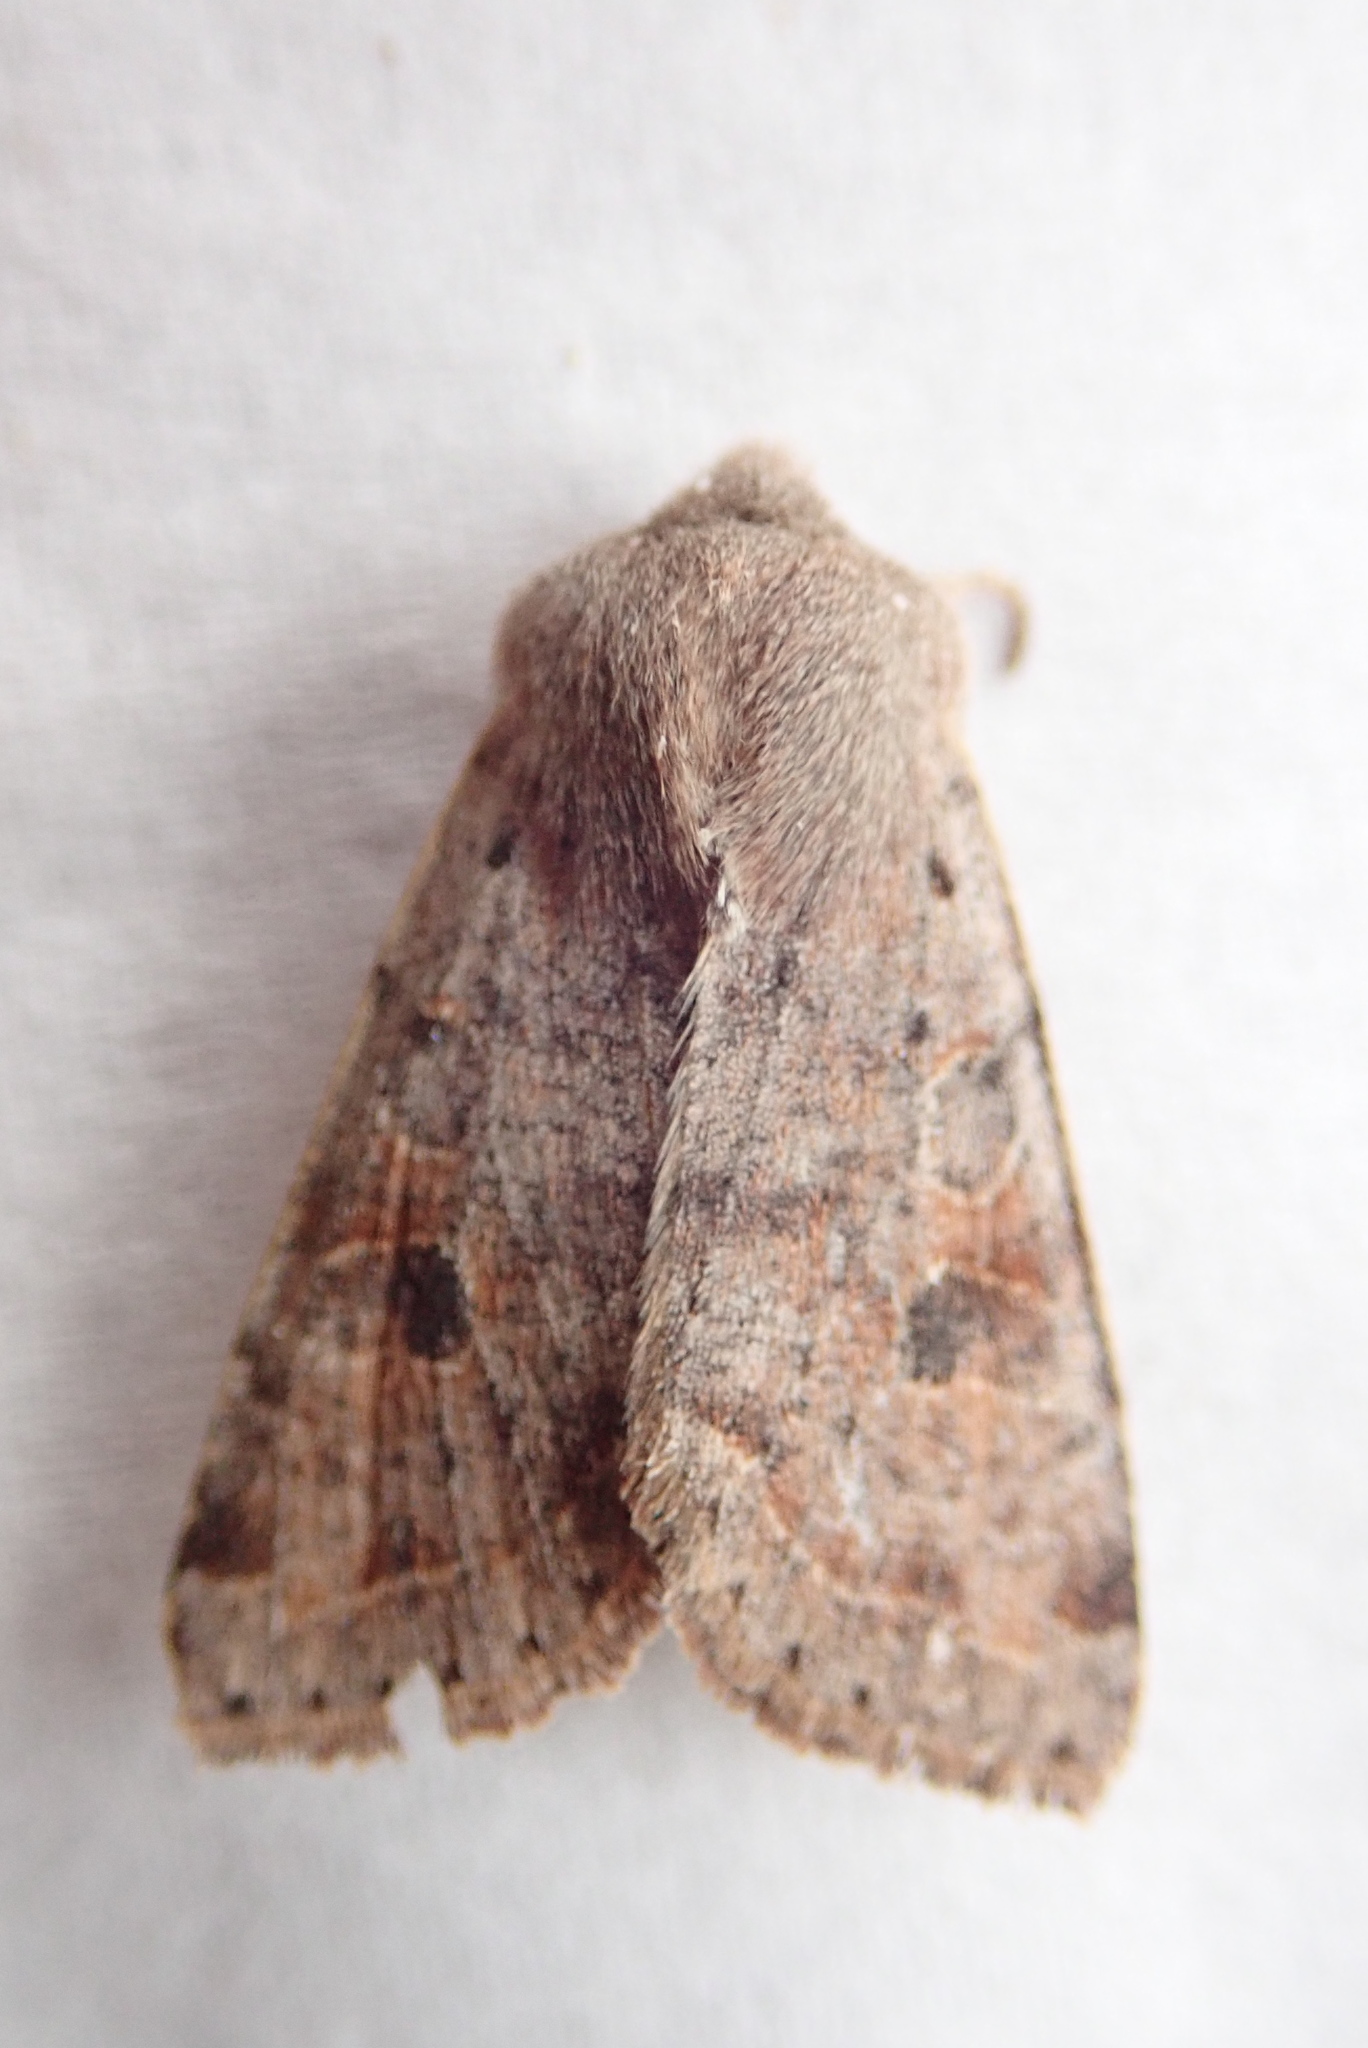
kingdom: Animalia
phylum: Arthropoda
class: Insecta
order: Lepidoptera
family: Noctuidae
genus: Orthosia
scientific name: Orthosia hibisci
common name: Green fruitworm
